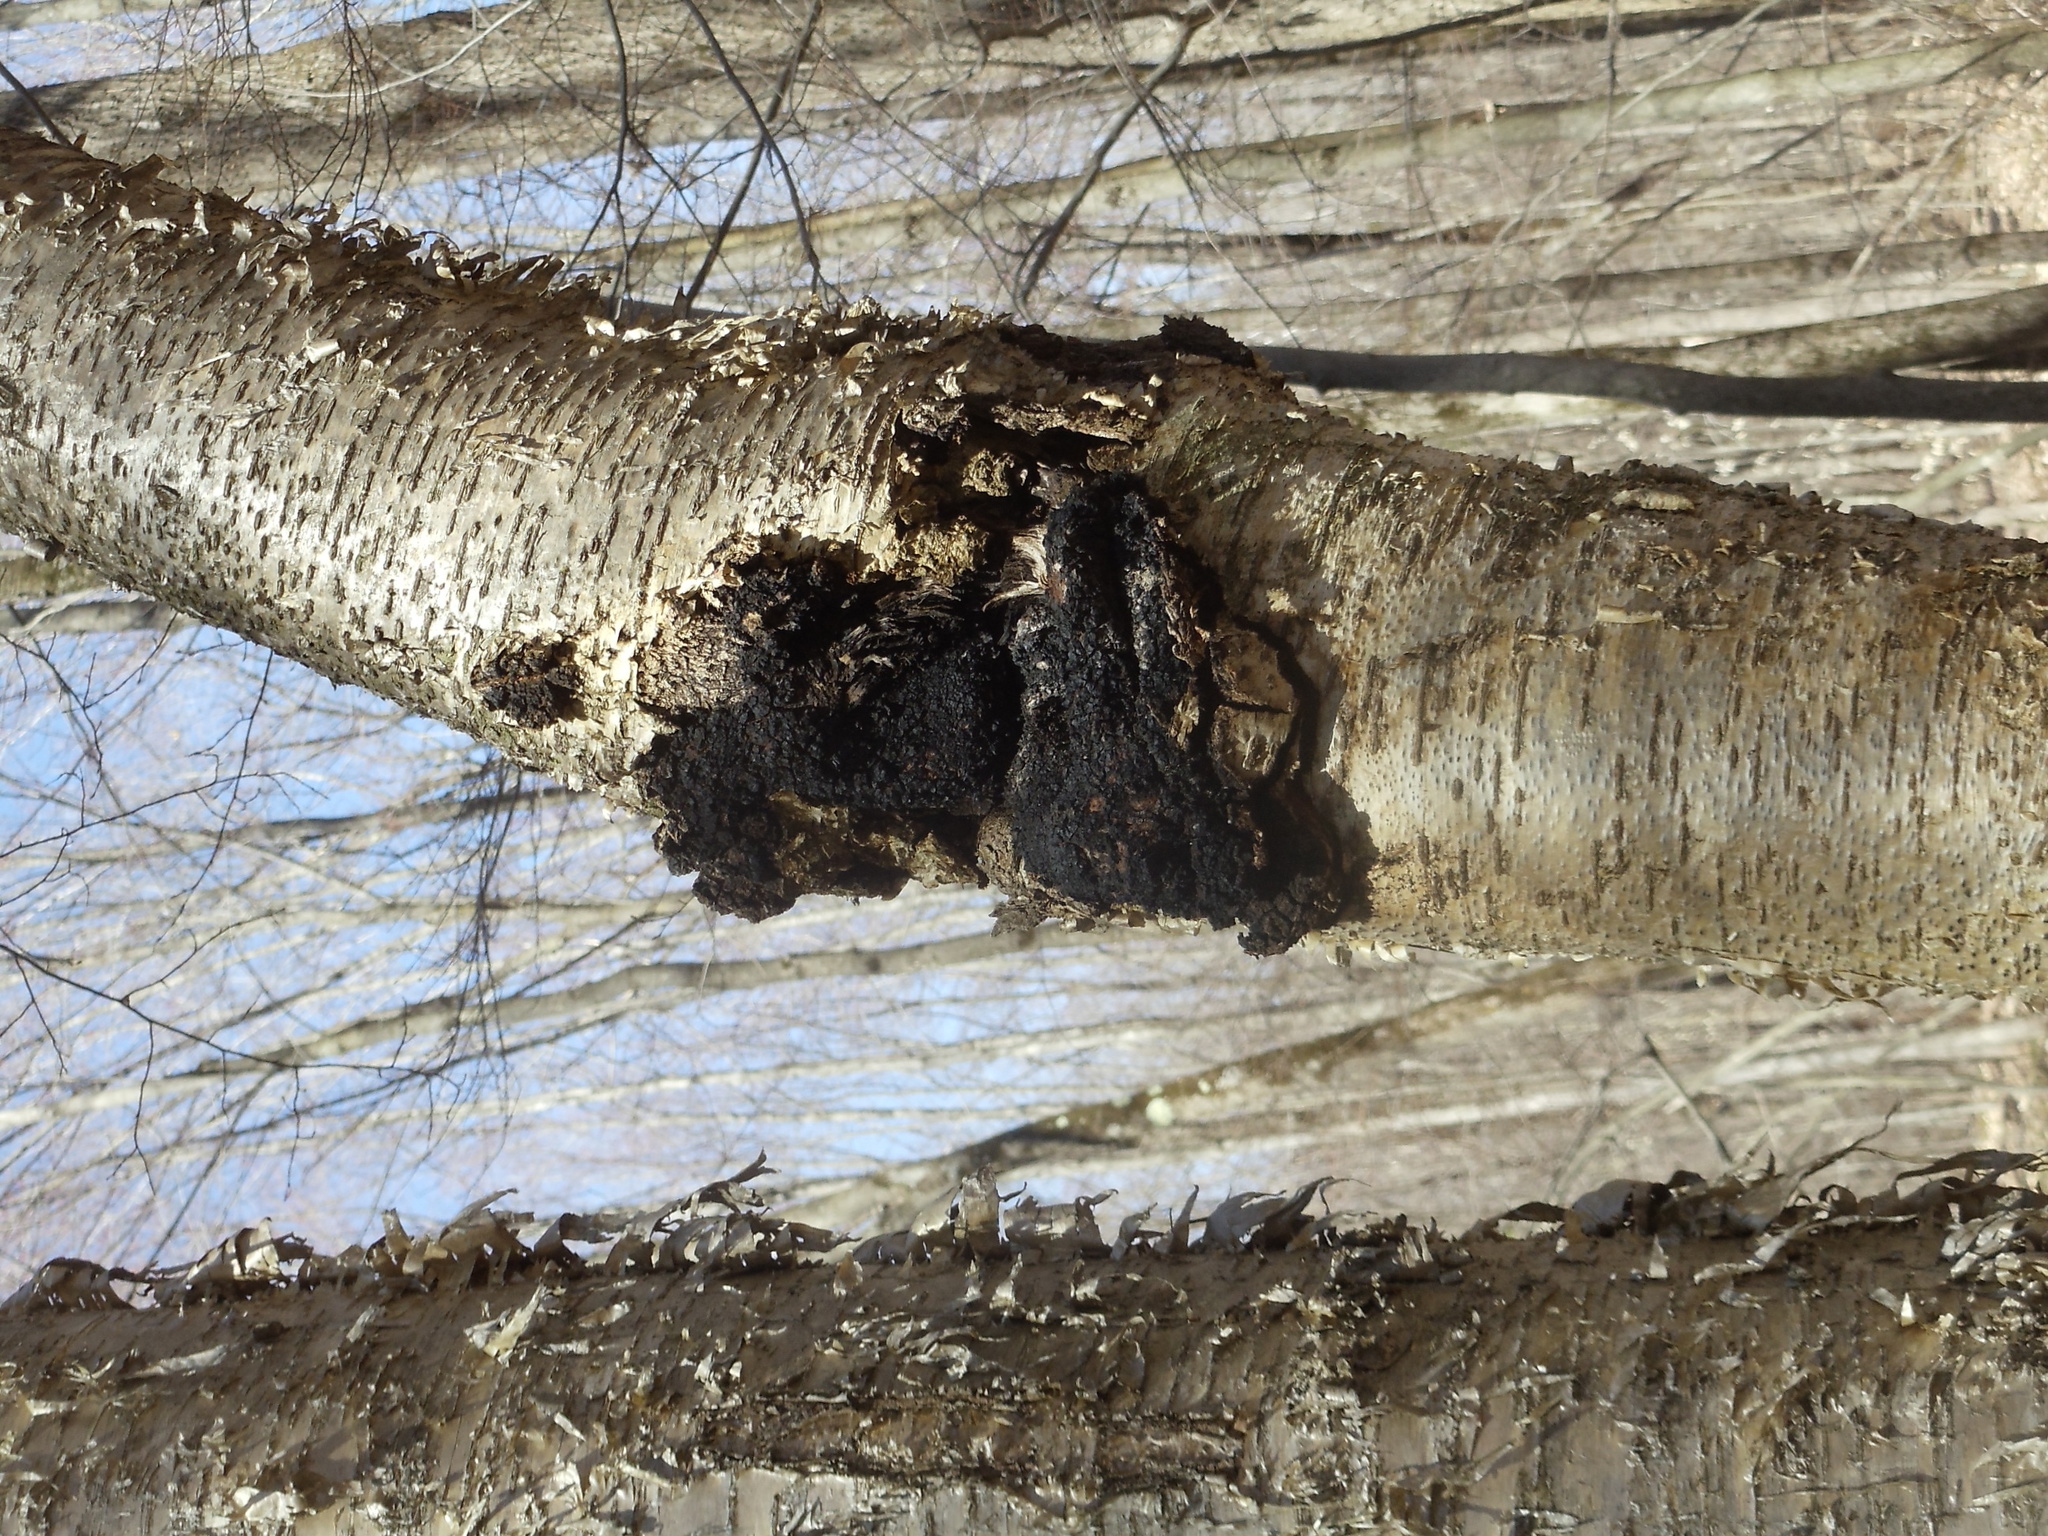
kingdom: Fungi
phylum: Basidiomycota
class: Agaricomycetes
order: Hymenochaetales
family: Hymenochaetaceae
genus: Inonotus
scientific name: Inonotus obliquus
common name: Chaga
